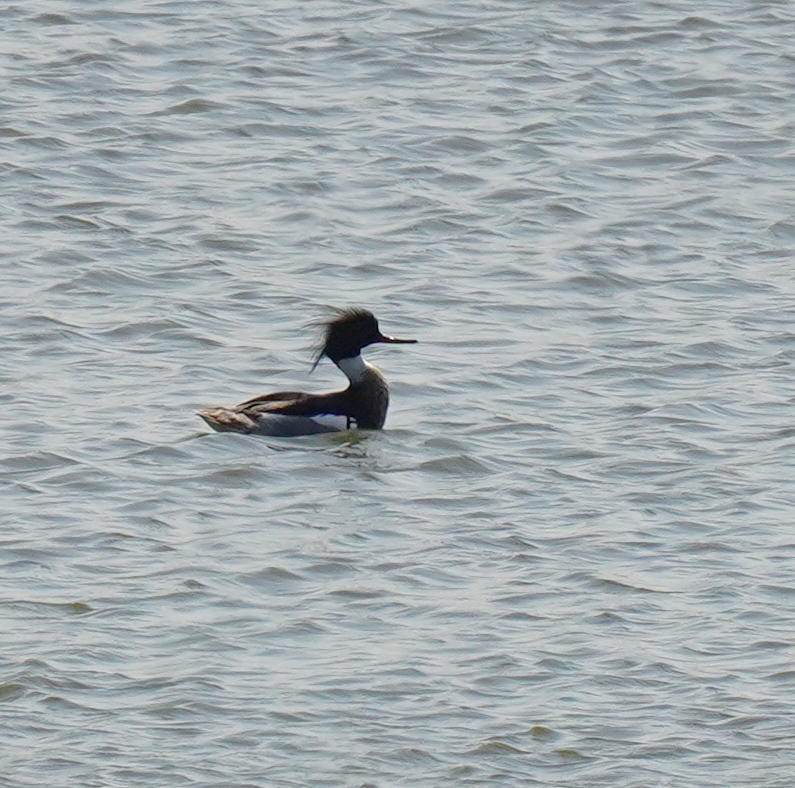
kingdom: Animalia
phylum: Chordata
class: Aves
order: Anseriformes
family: Anatidae
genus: Mergus
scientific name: Mergus serrator
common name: Red-breasted merganser
